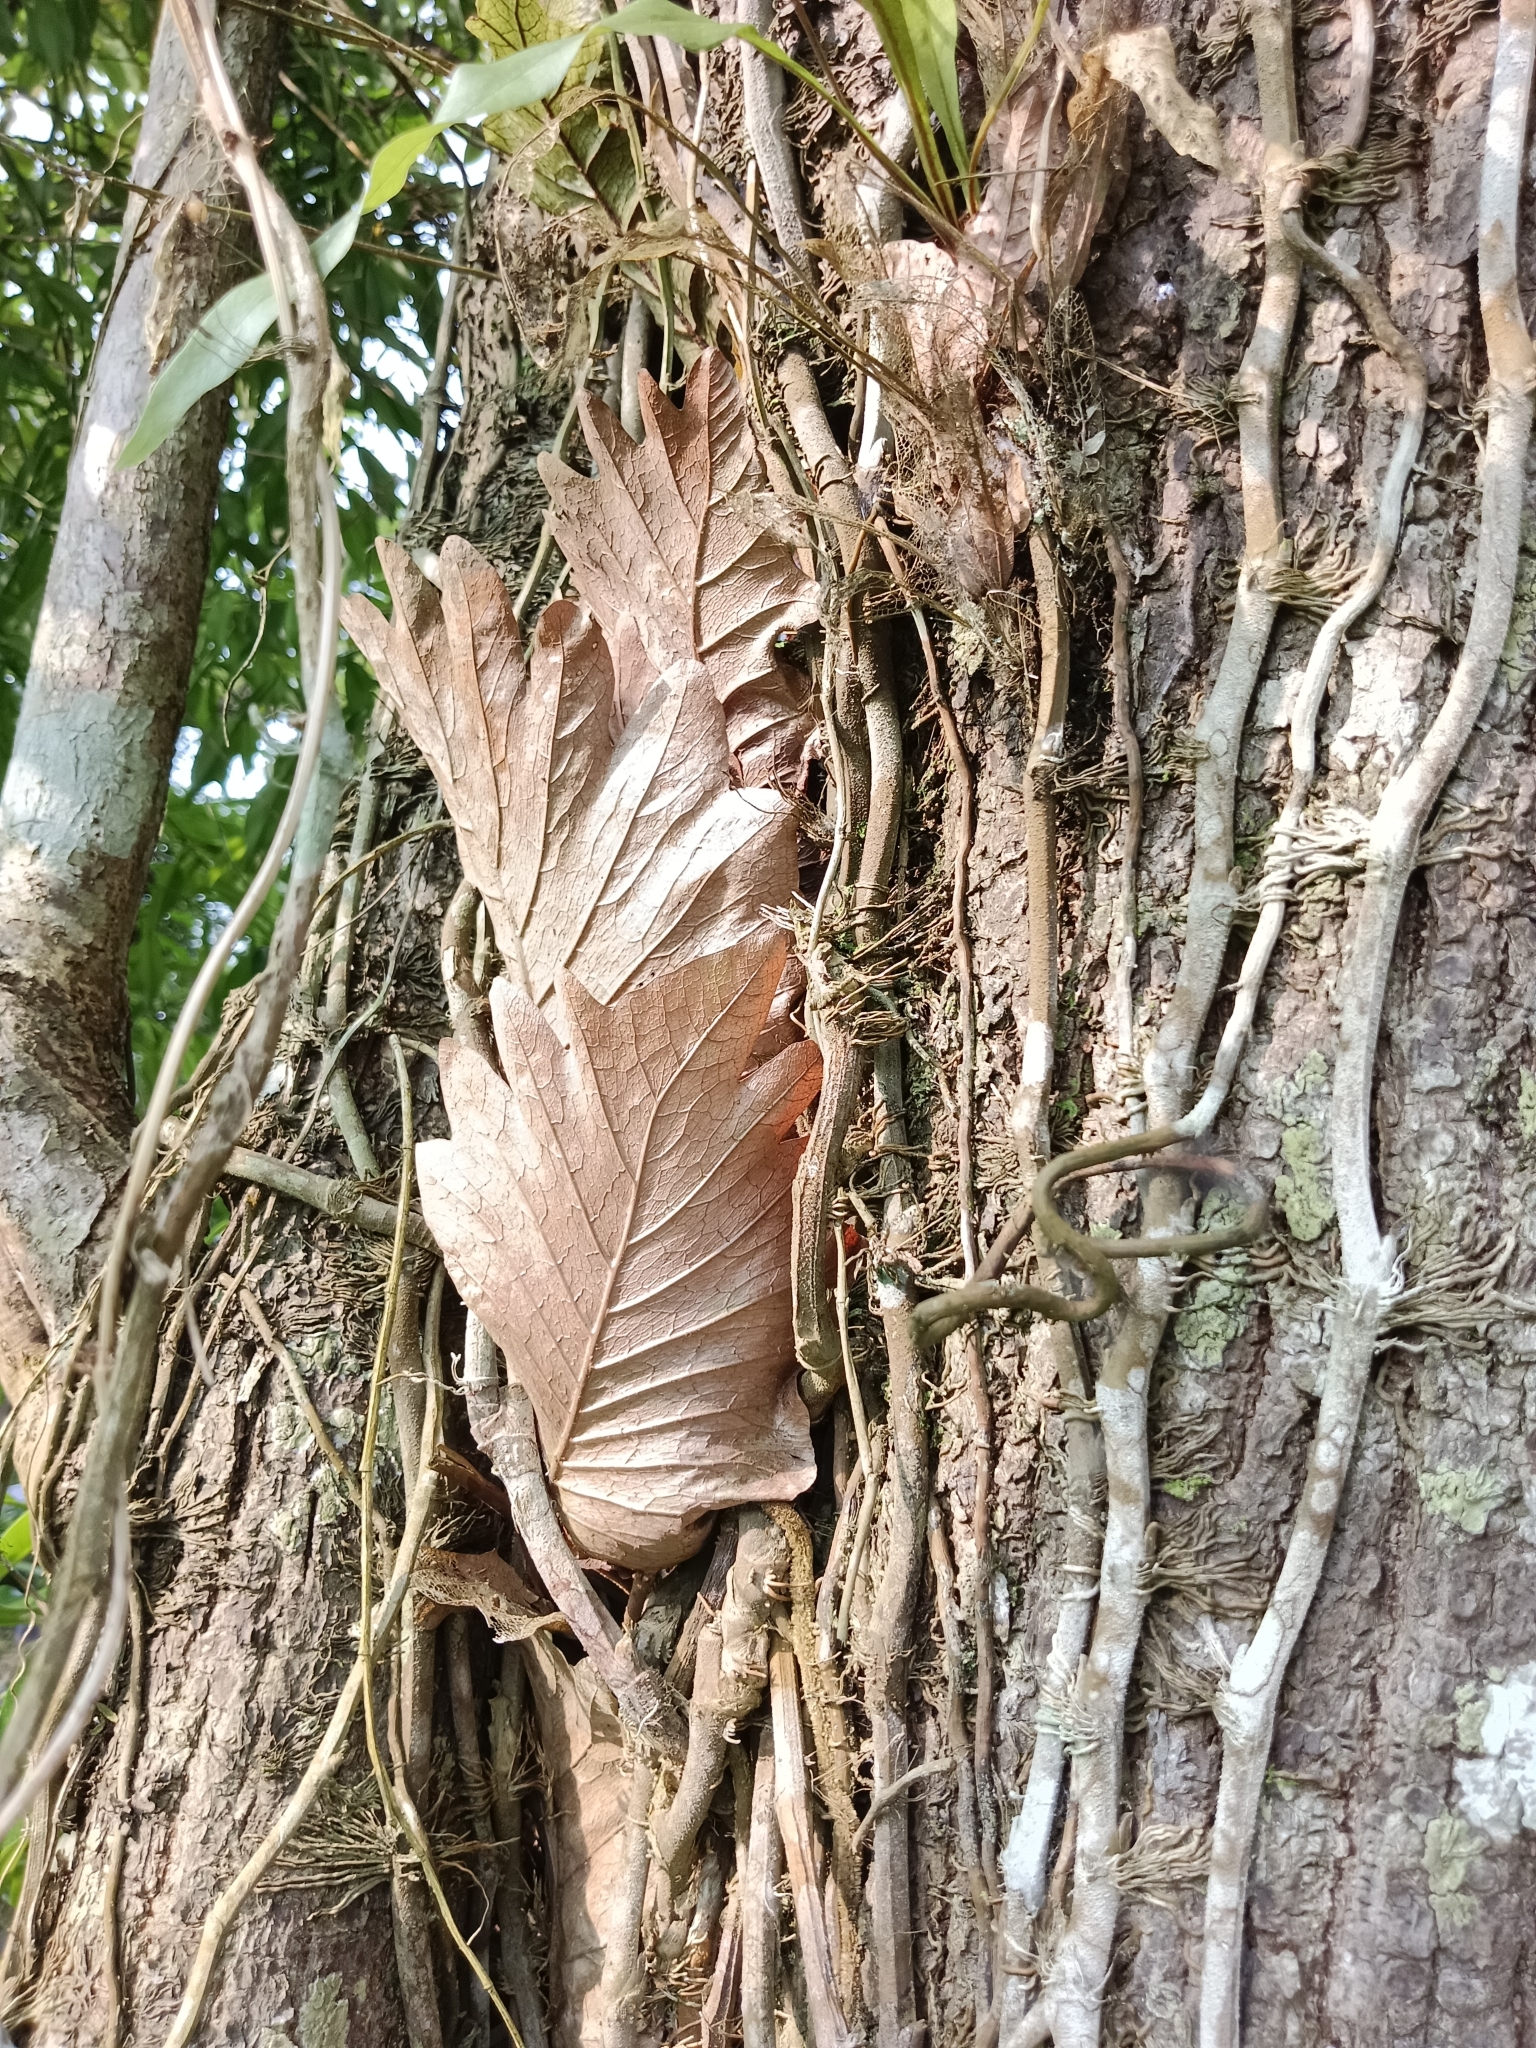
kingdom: Plantae
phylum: Tracheophyta
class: Polypodiopsida
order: Polypodiales
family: Polypodiaceae
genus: Drynaria
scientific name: Drynaria quercifolia
